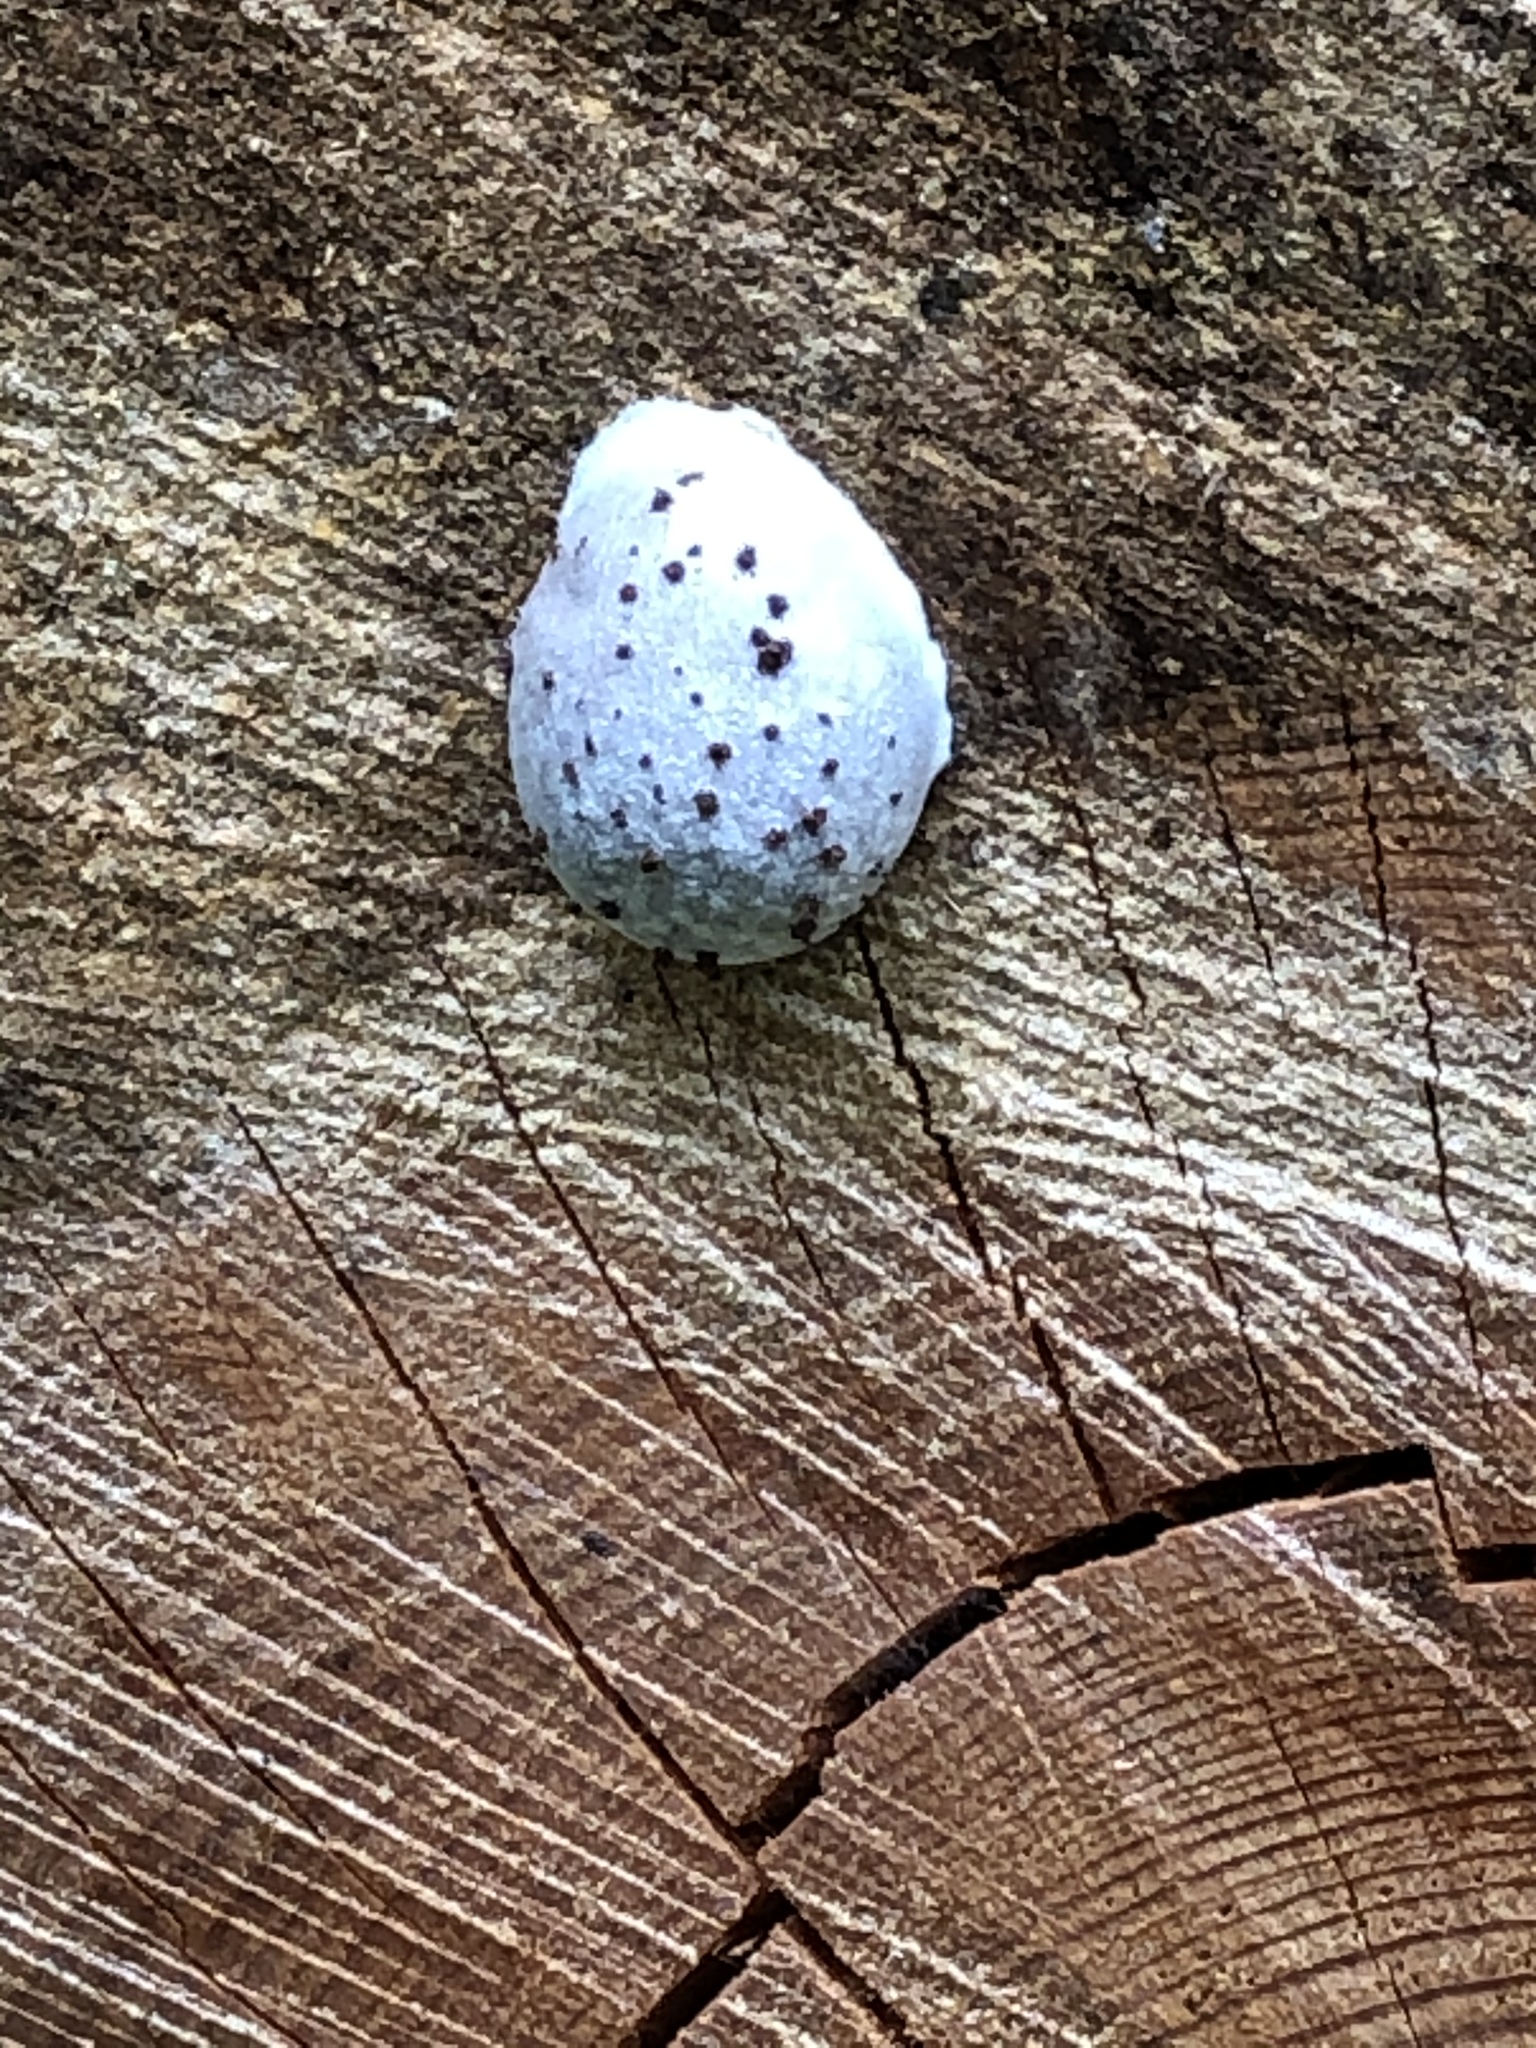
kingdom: Protozoa
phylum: Mycetozoa
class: Myxomycetes
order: Cribrariales
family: Tubiferaceae
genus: Reticularia
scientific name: Reticularia lycoperdon
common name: False puffball
